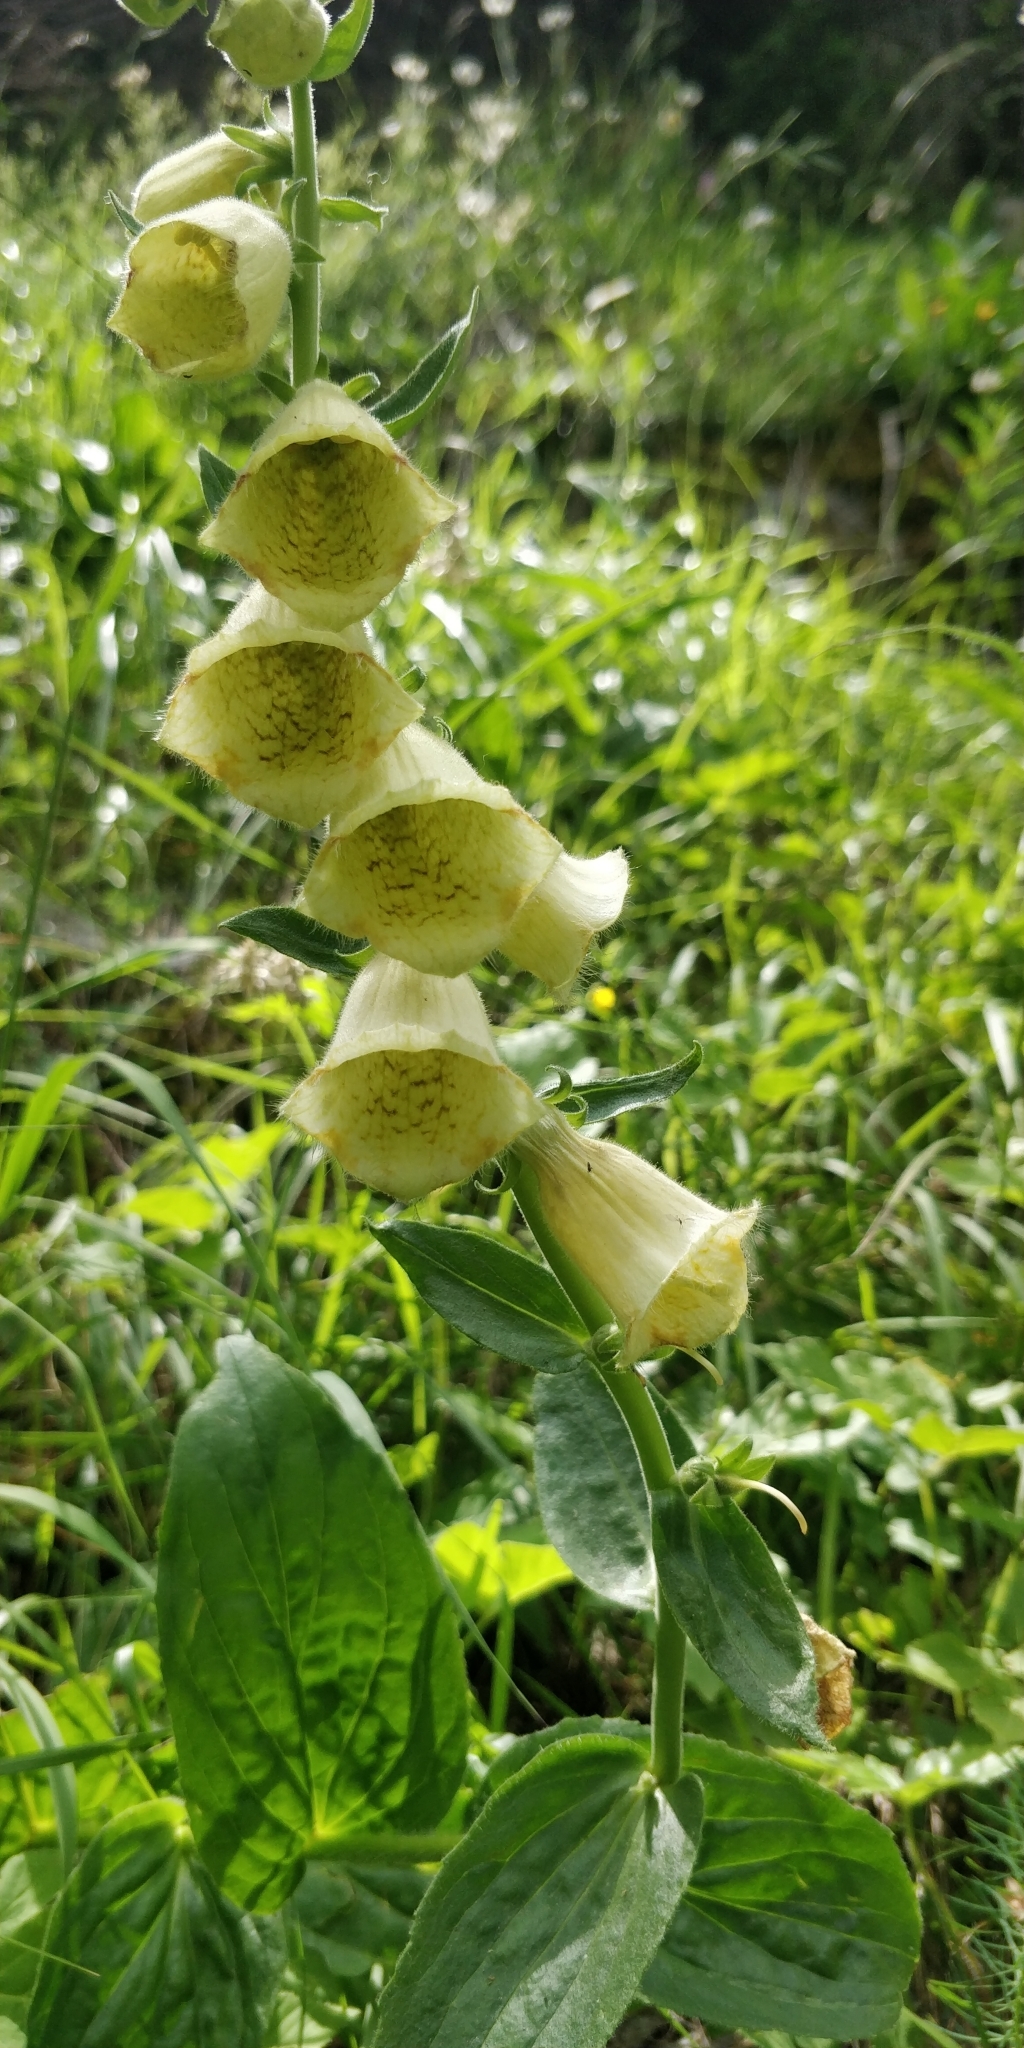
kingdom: Plantae
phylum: Tracheophyta
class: Magnoliopsida
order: Lamiales
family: Plantaginaceae
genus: Digitalis
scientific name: Digitalis grandiflora
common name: Yellow foxglove
